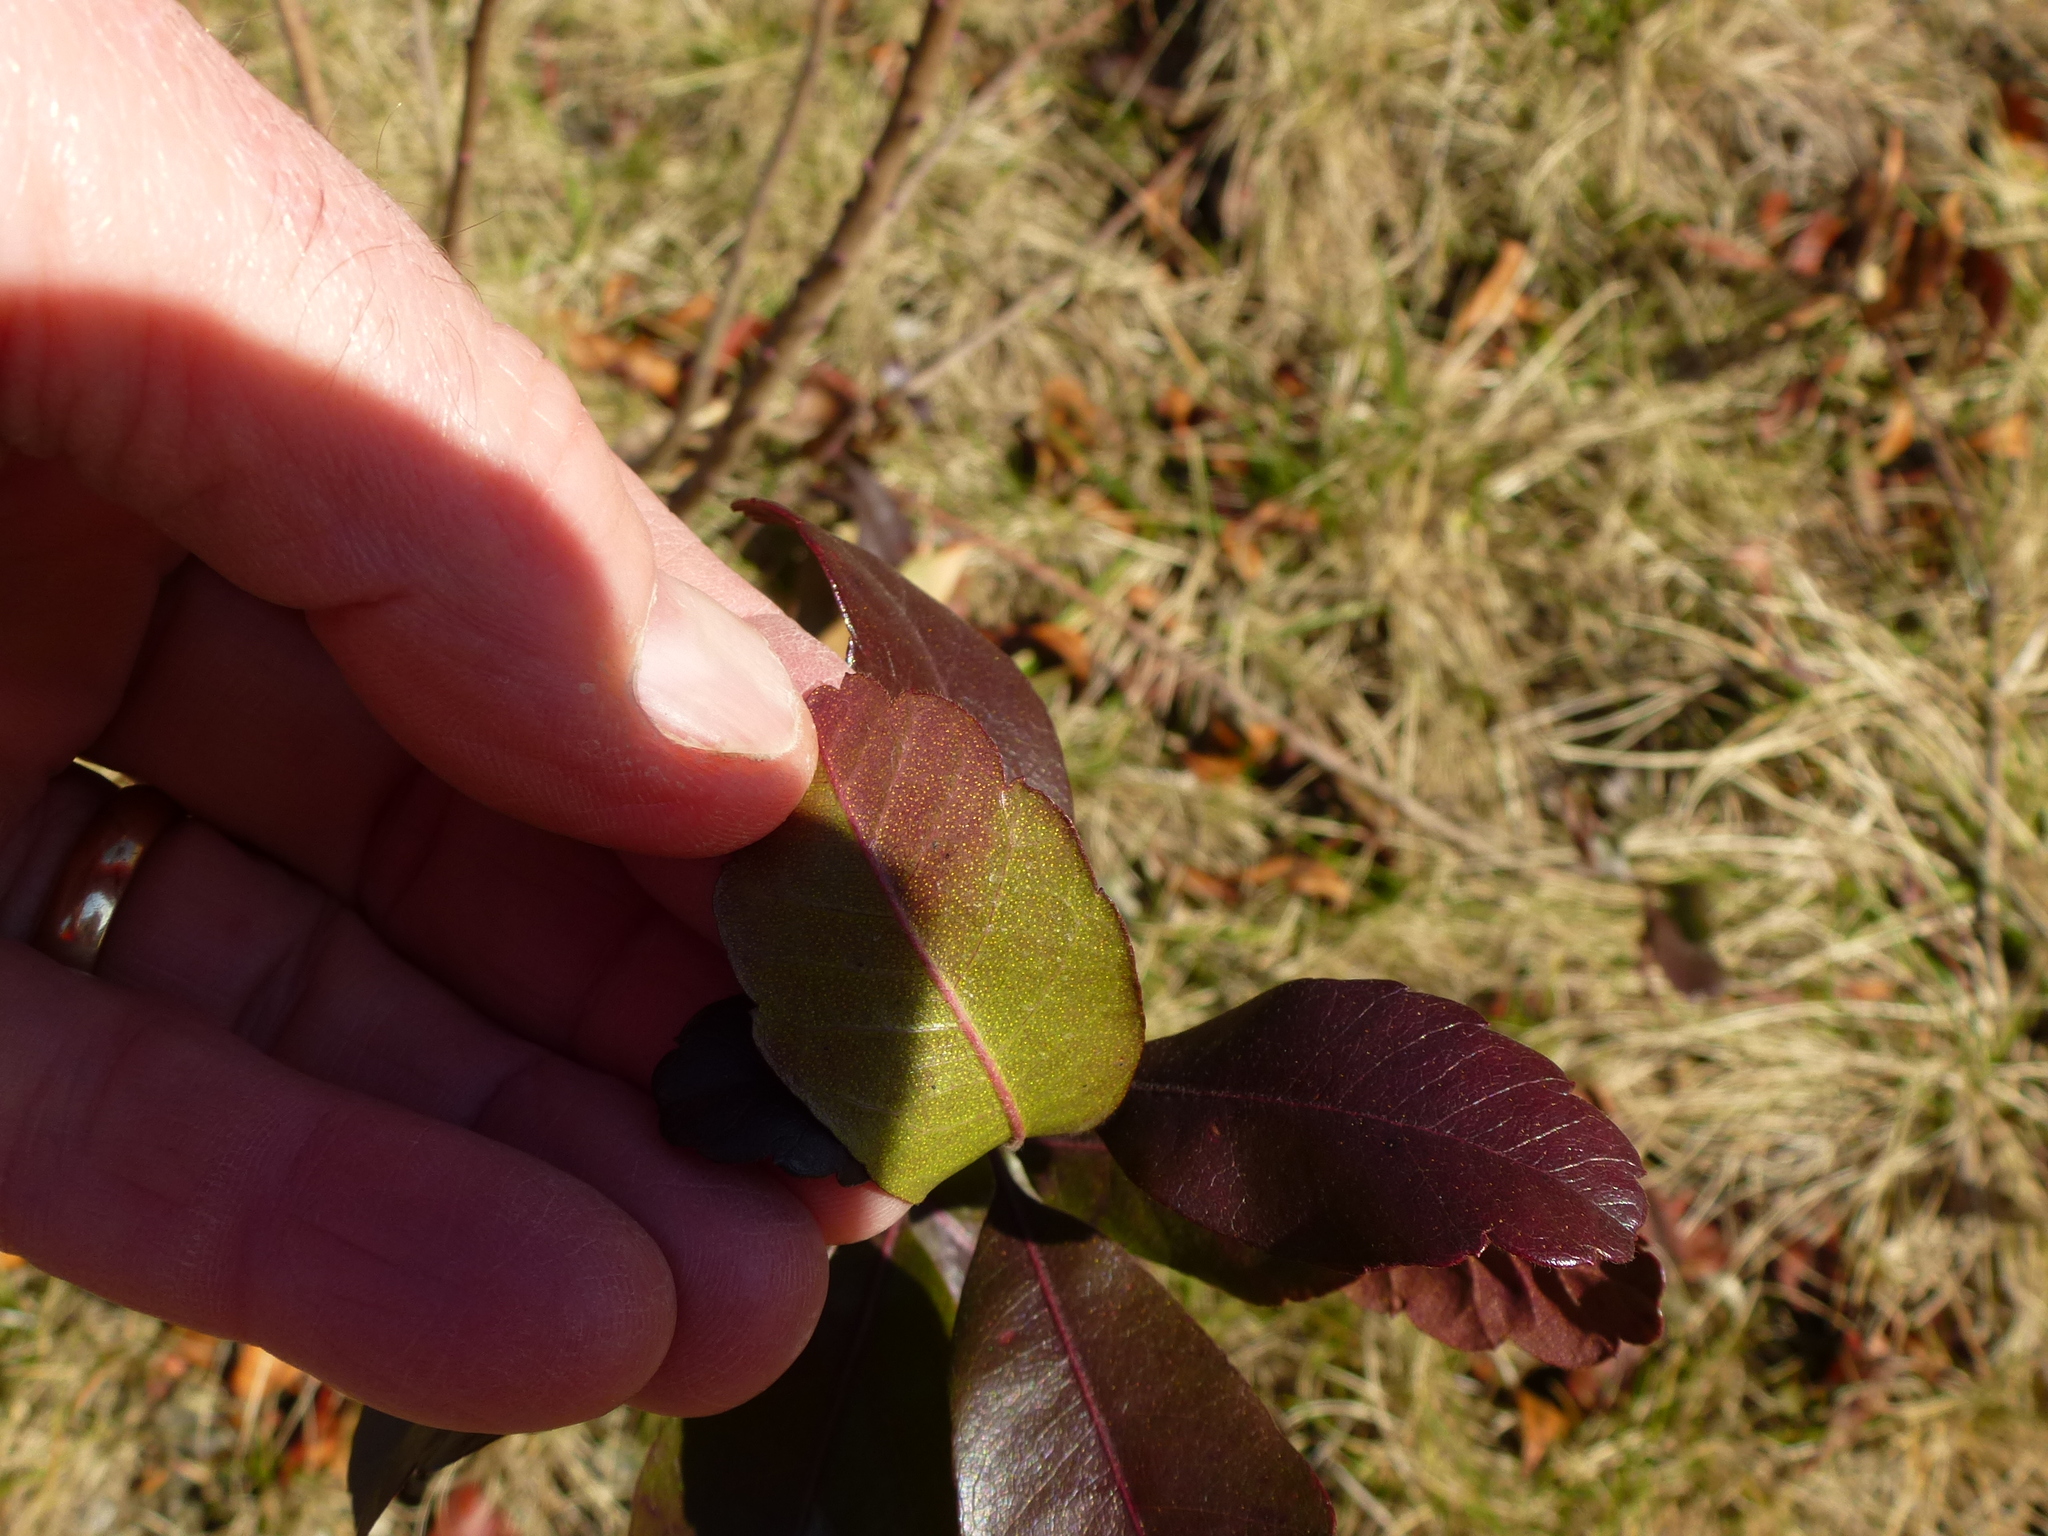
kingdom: Plantae
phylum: Tracheophyta
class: Magnoliopsida
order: Fagales
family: Myricaceae
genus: Morella
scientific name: Morella pensylvanica
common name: Northern bayberry
